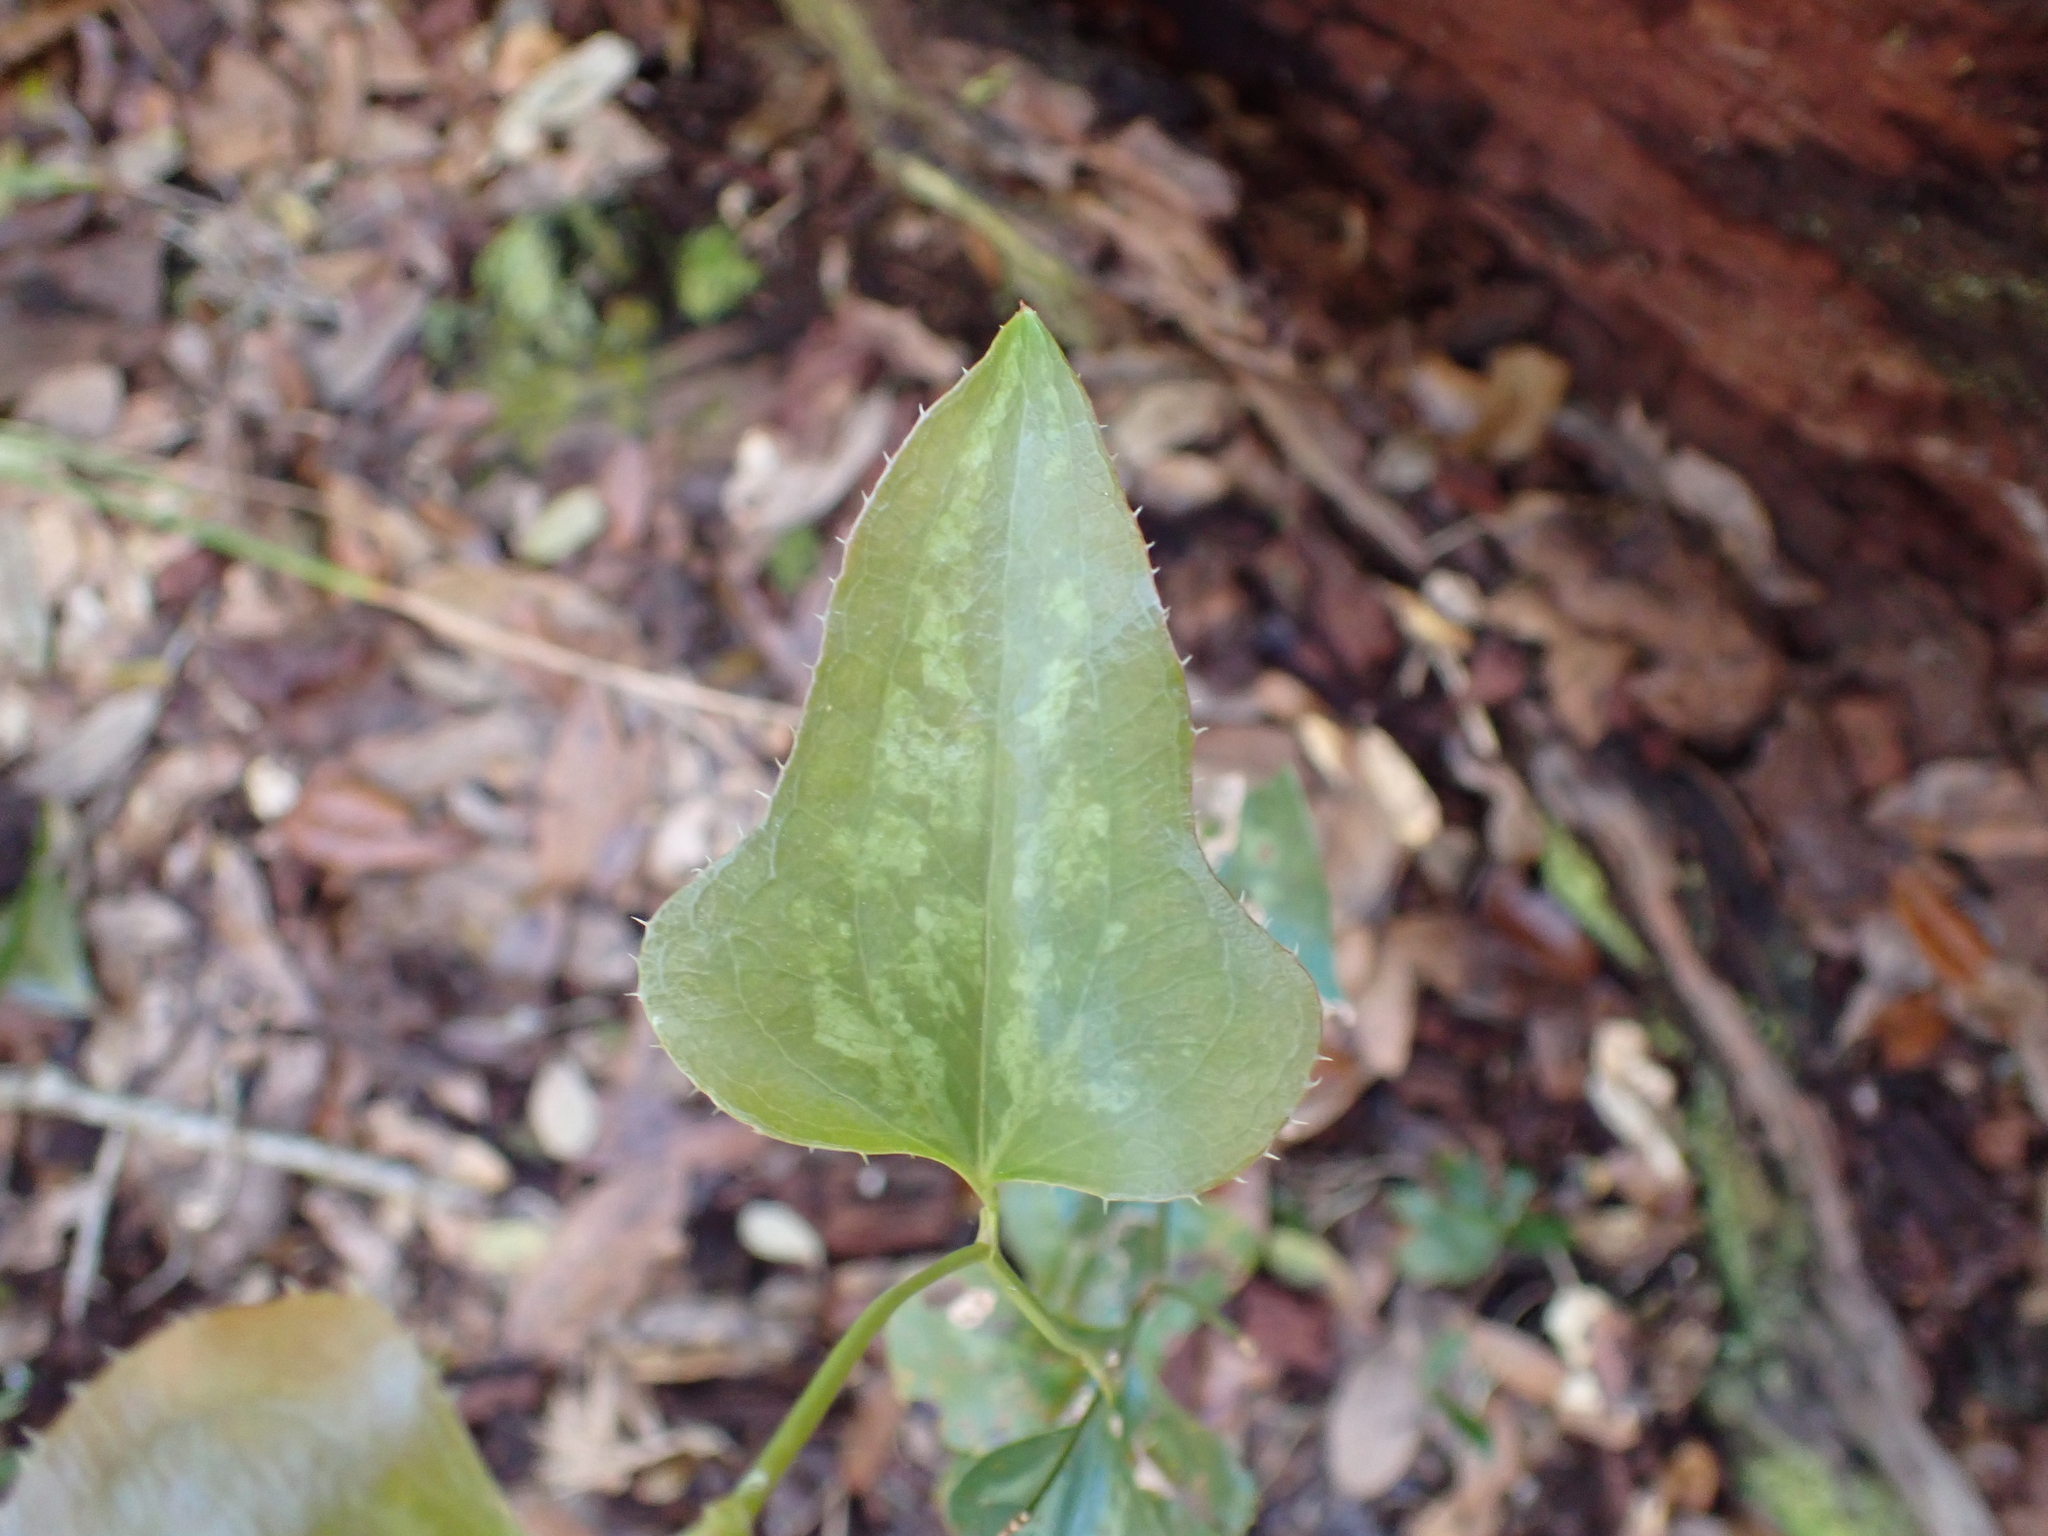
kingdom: Plantae
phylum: Tracheophyta
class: Liliopsida
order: Liliales
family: Smilacaceae
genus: Smilax
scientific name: Smilax bona-nox
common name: Catbrier
